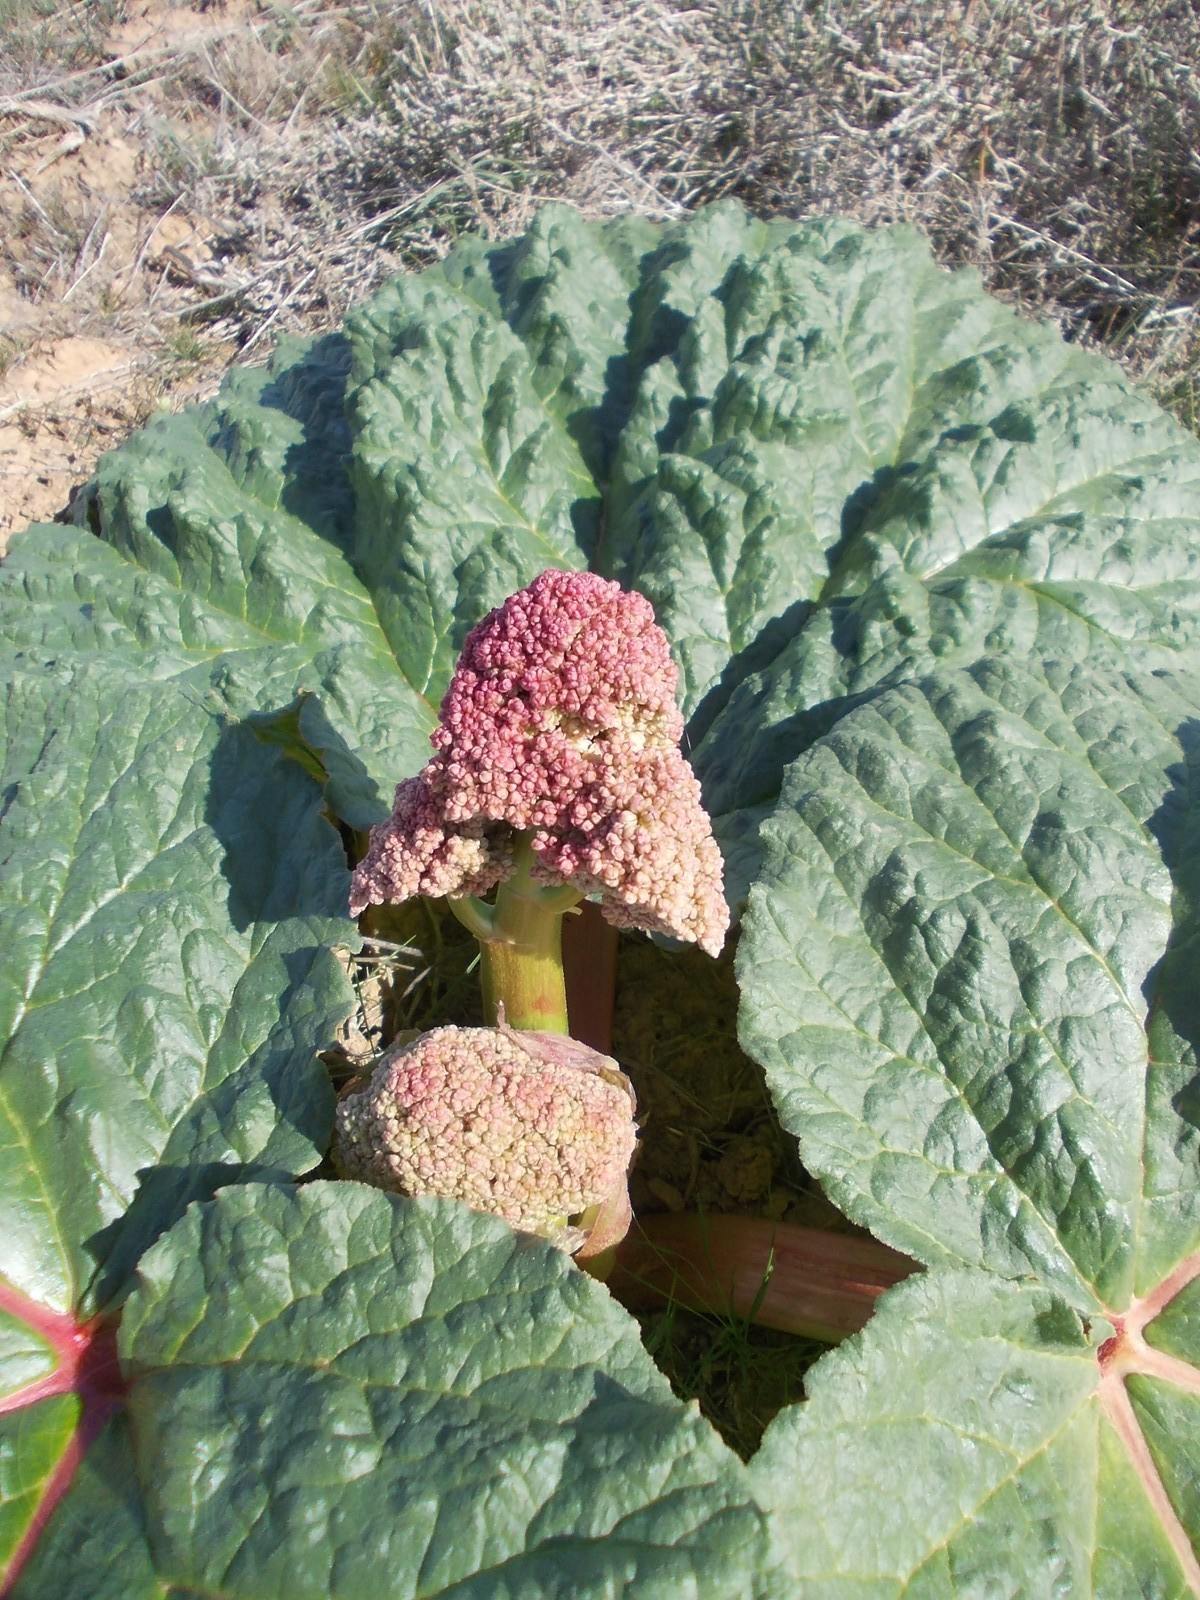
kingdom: Plantae
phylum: Tracheophyta
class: Magnoliopsida
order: Caryophyllales
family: Polygonaceae
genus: Rheum
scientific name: Rheum tataricum
